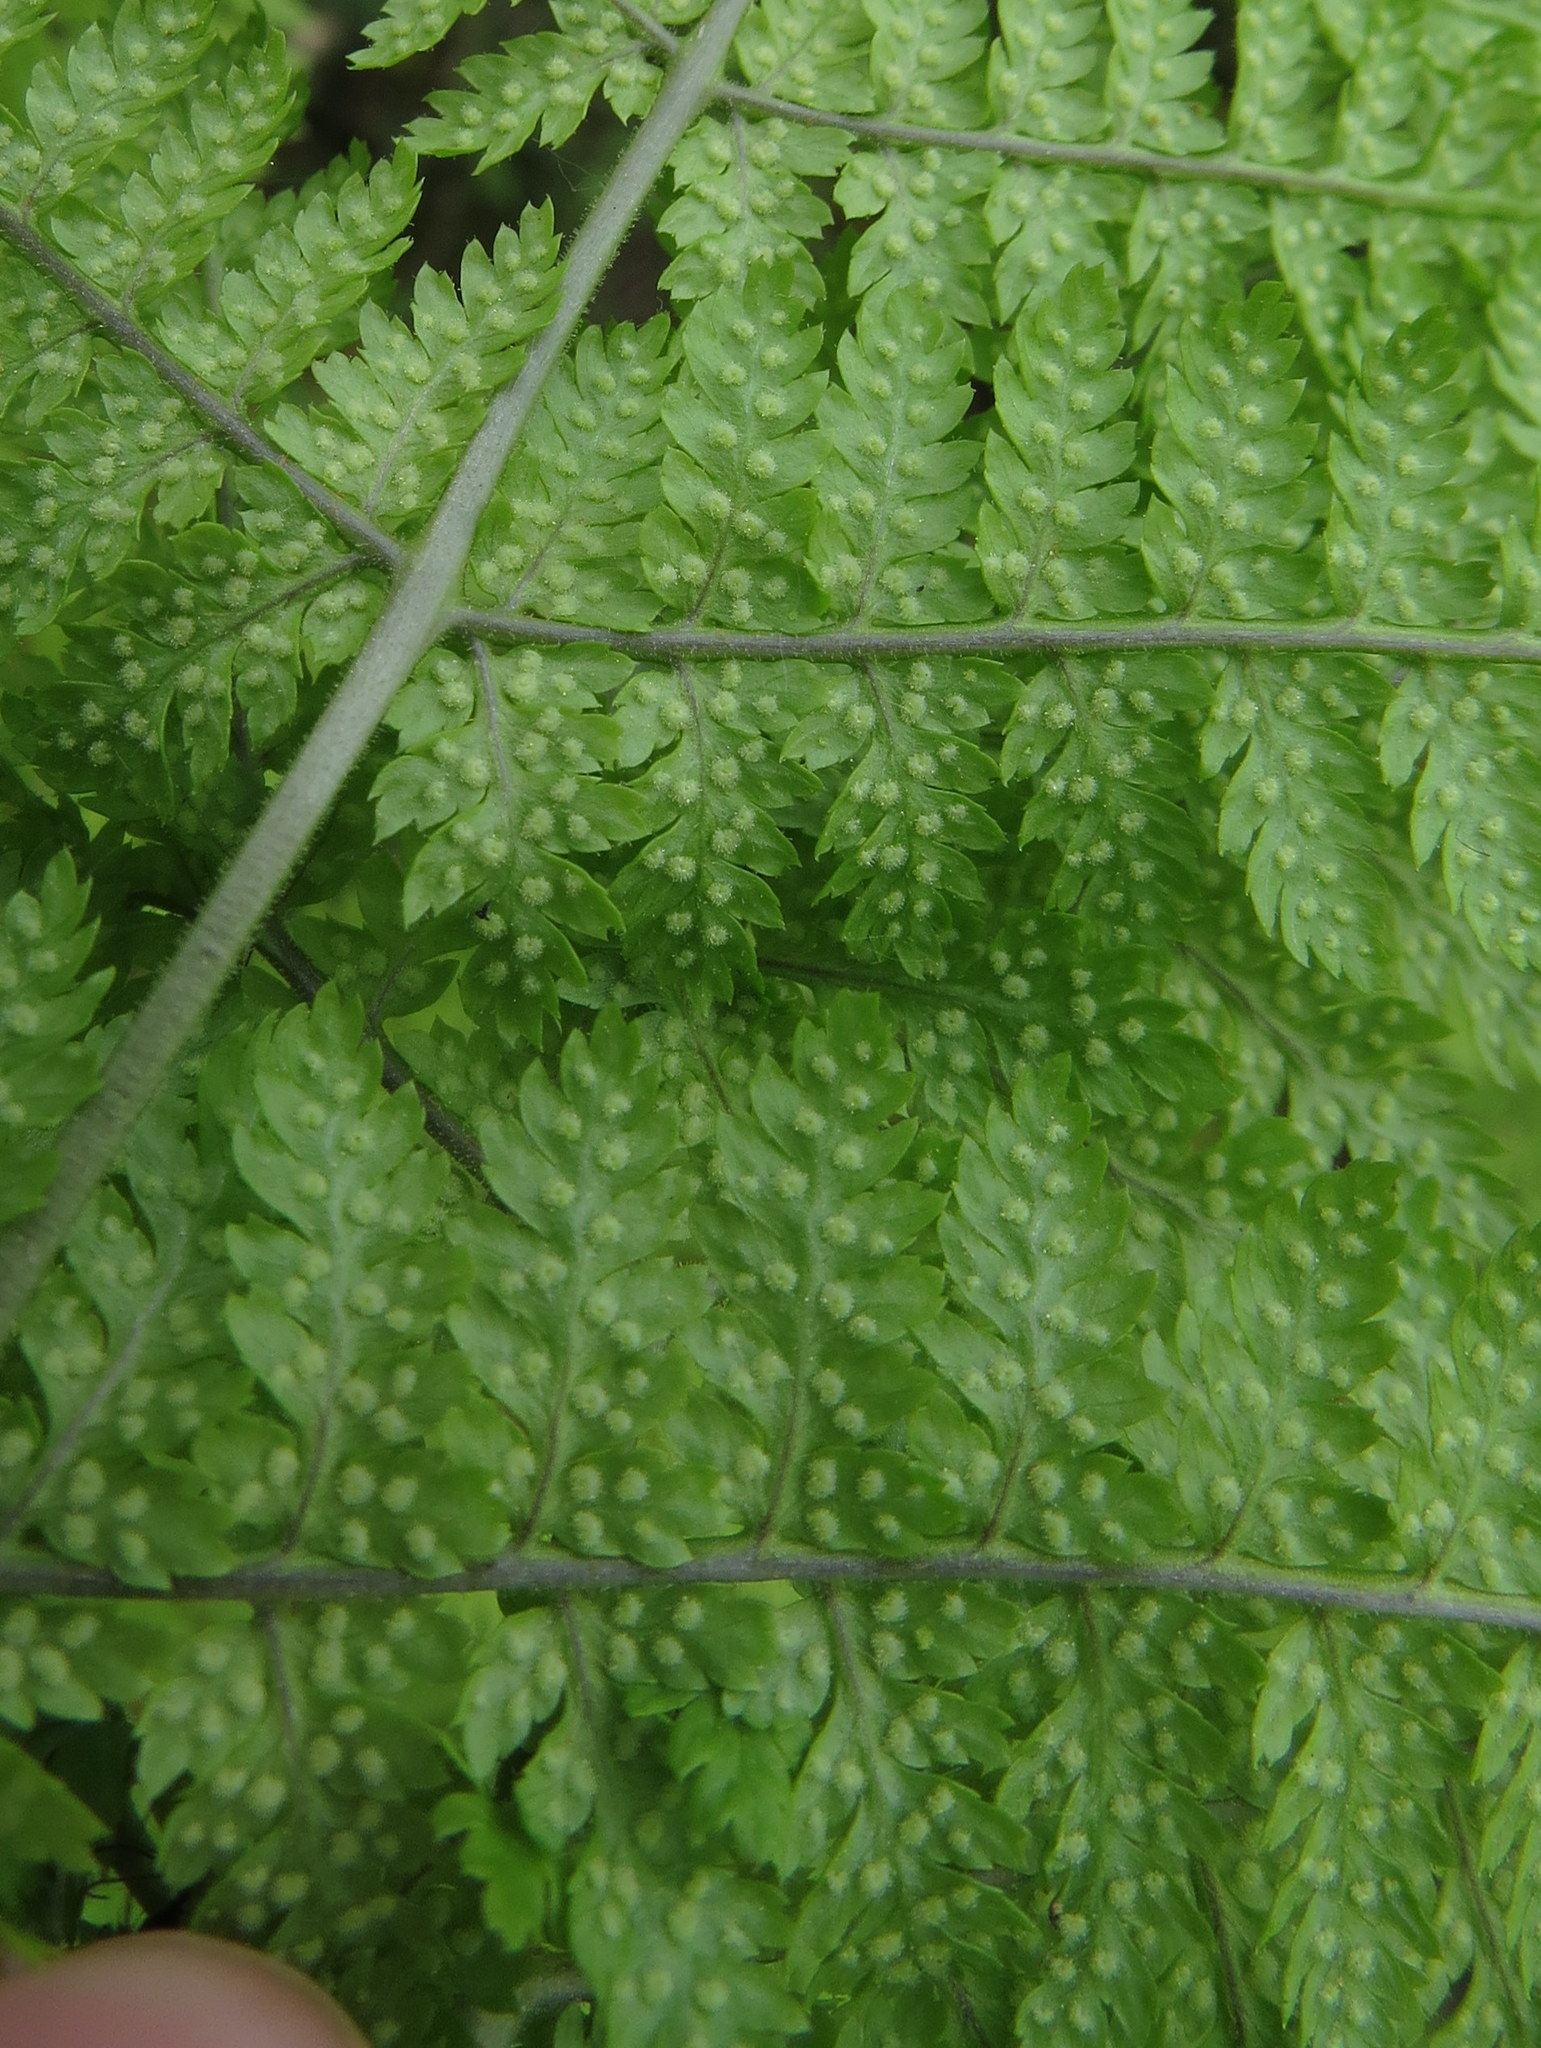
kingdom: Plantae
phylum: Tracheophyta
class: Polypodiopsida
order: Polypodiales
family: Dryopteridaceae
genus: Dryopteris
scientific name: Dryopteris intermedia
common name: Evergreen wood fern
